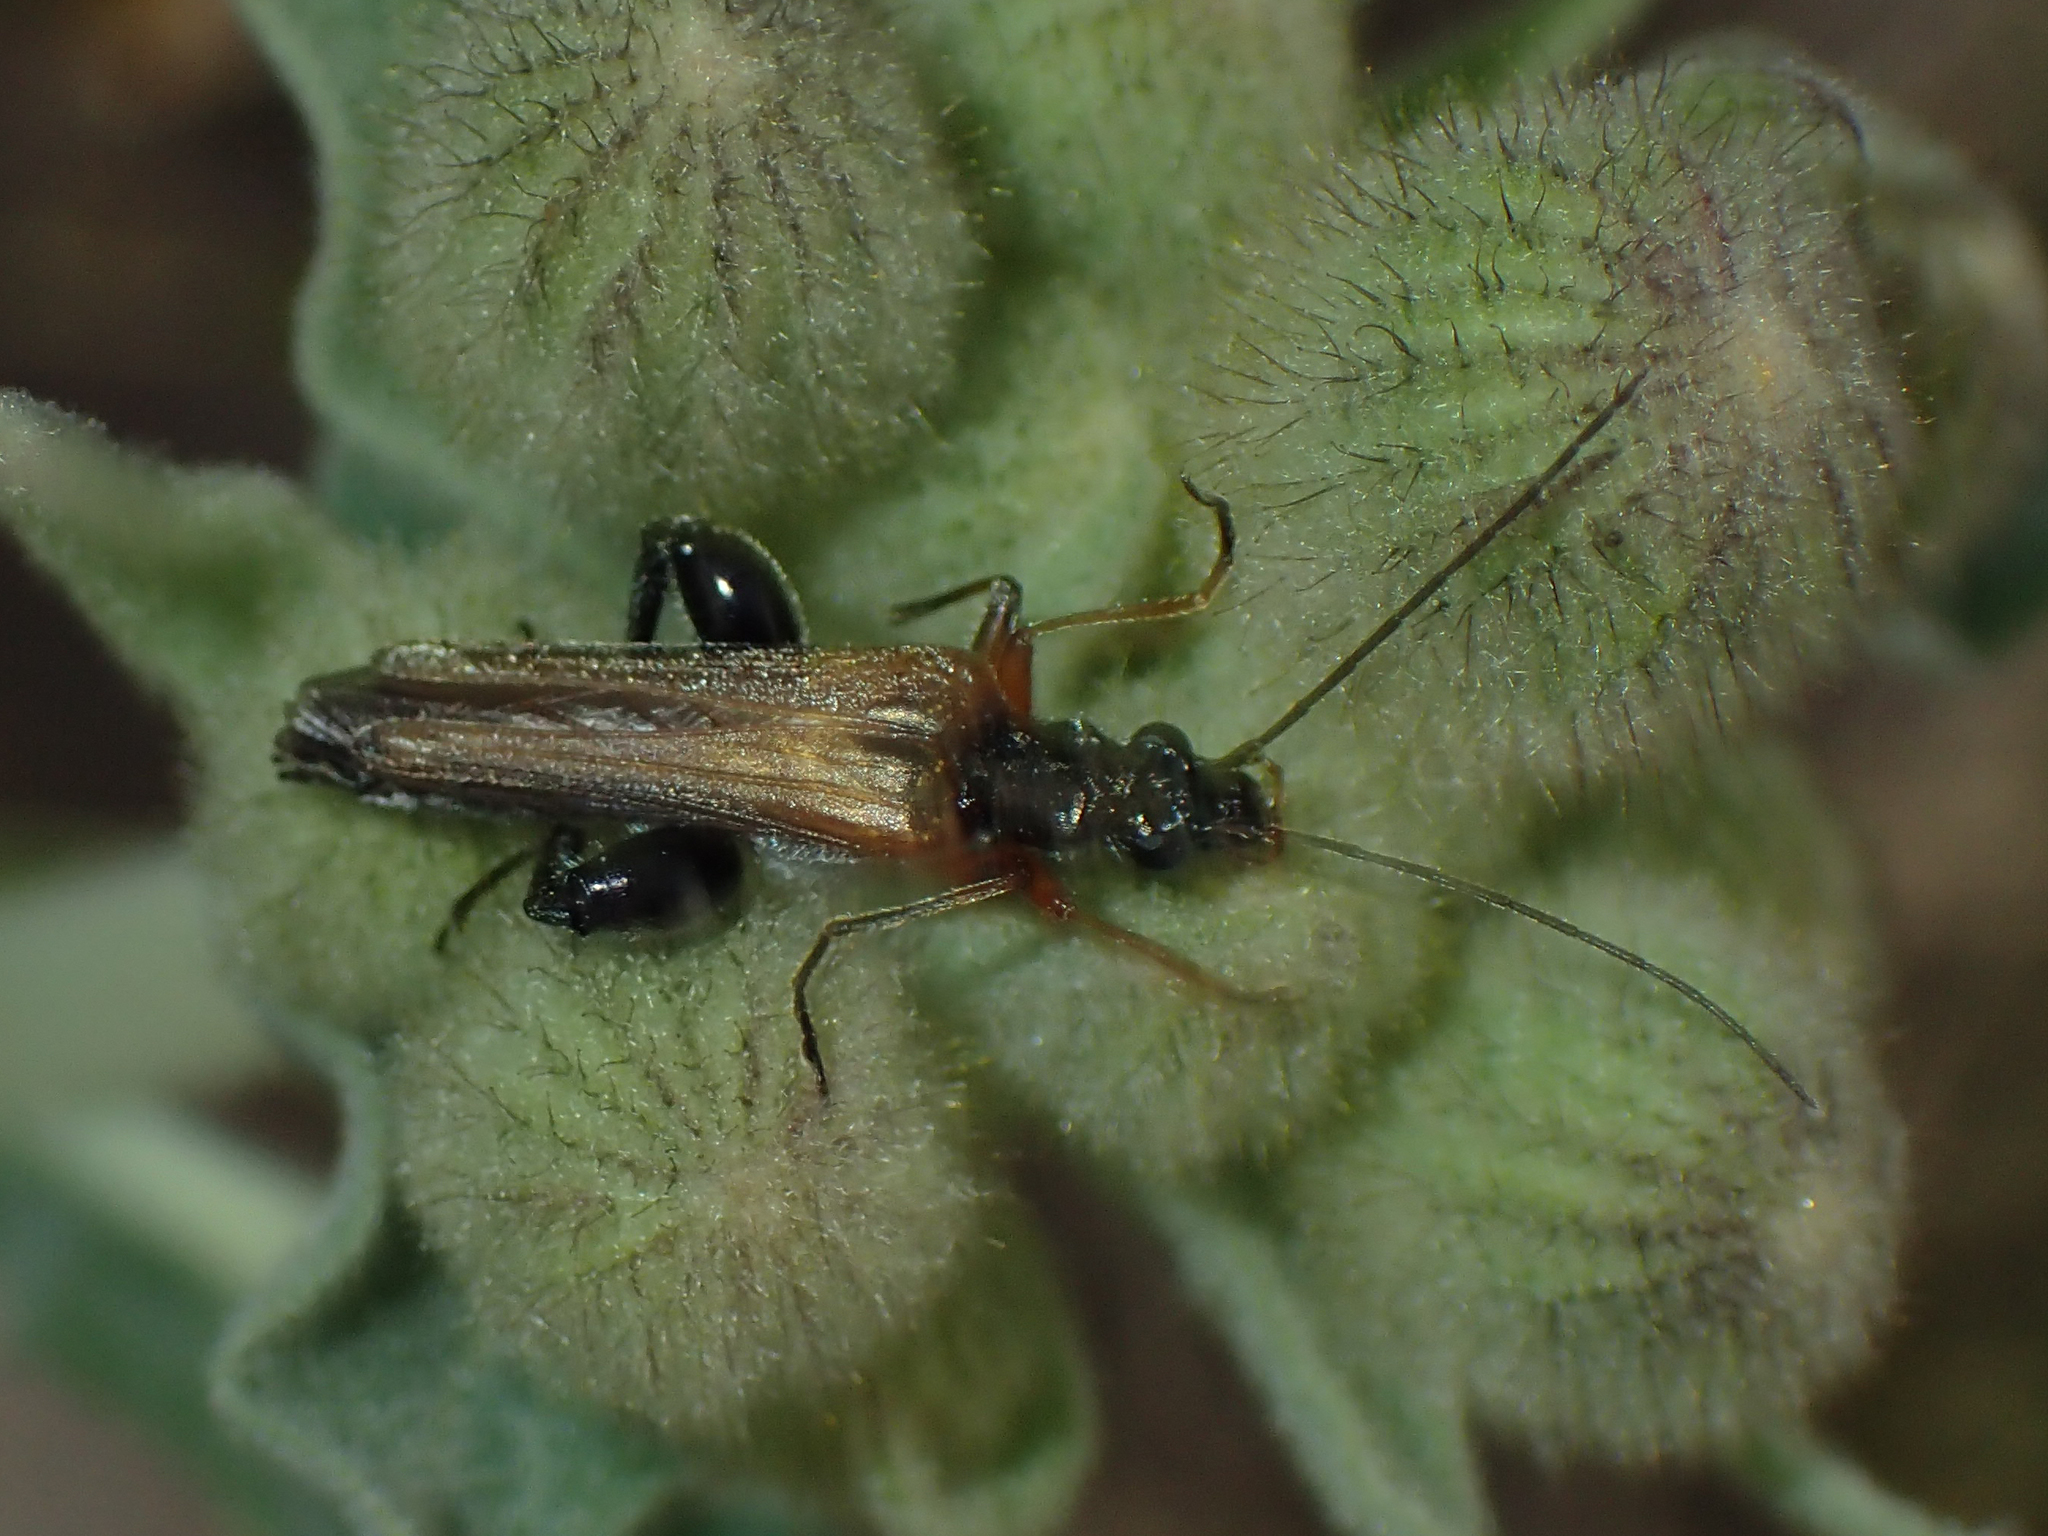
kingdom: Animalia
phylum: Arthropoda
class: Insecta
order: Coleoptera
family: Oedemeridae
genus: Oedemera
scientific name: Oedemera podagrariae
